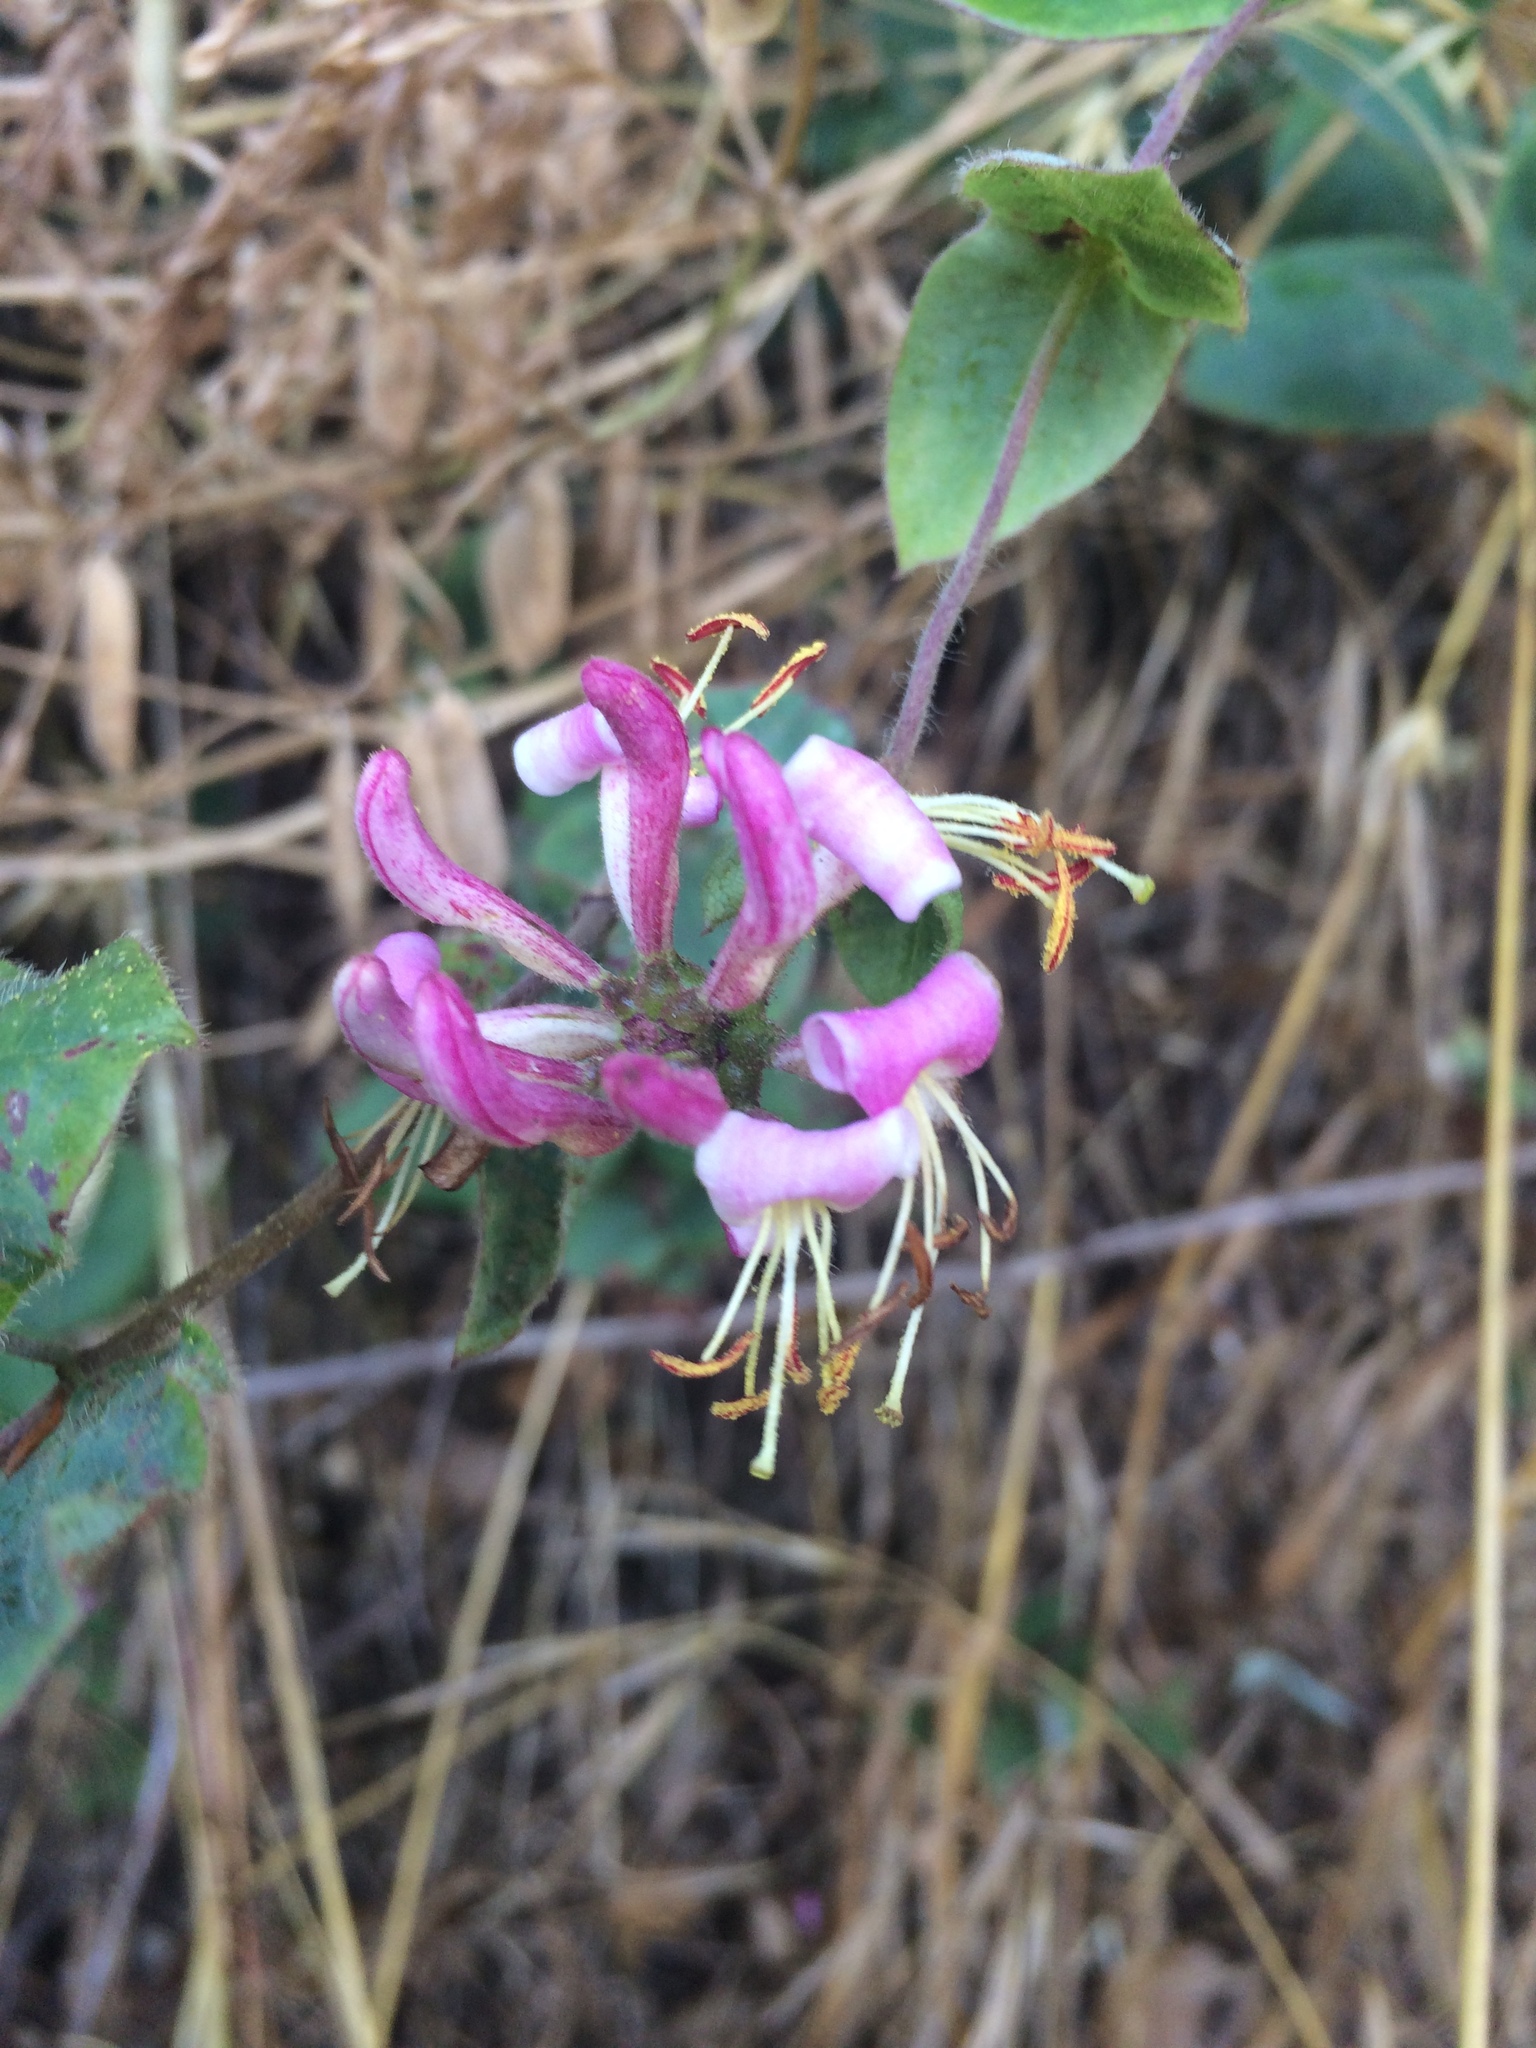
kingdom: Plantae
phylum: Tracheophyta
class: Magnoliopsida
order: Dipsacales
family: Caprifoliaceae
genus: Lonicera
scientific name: Lonicera hispidula
